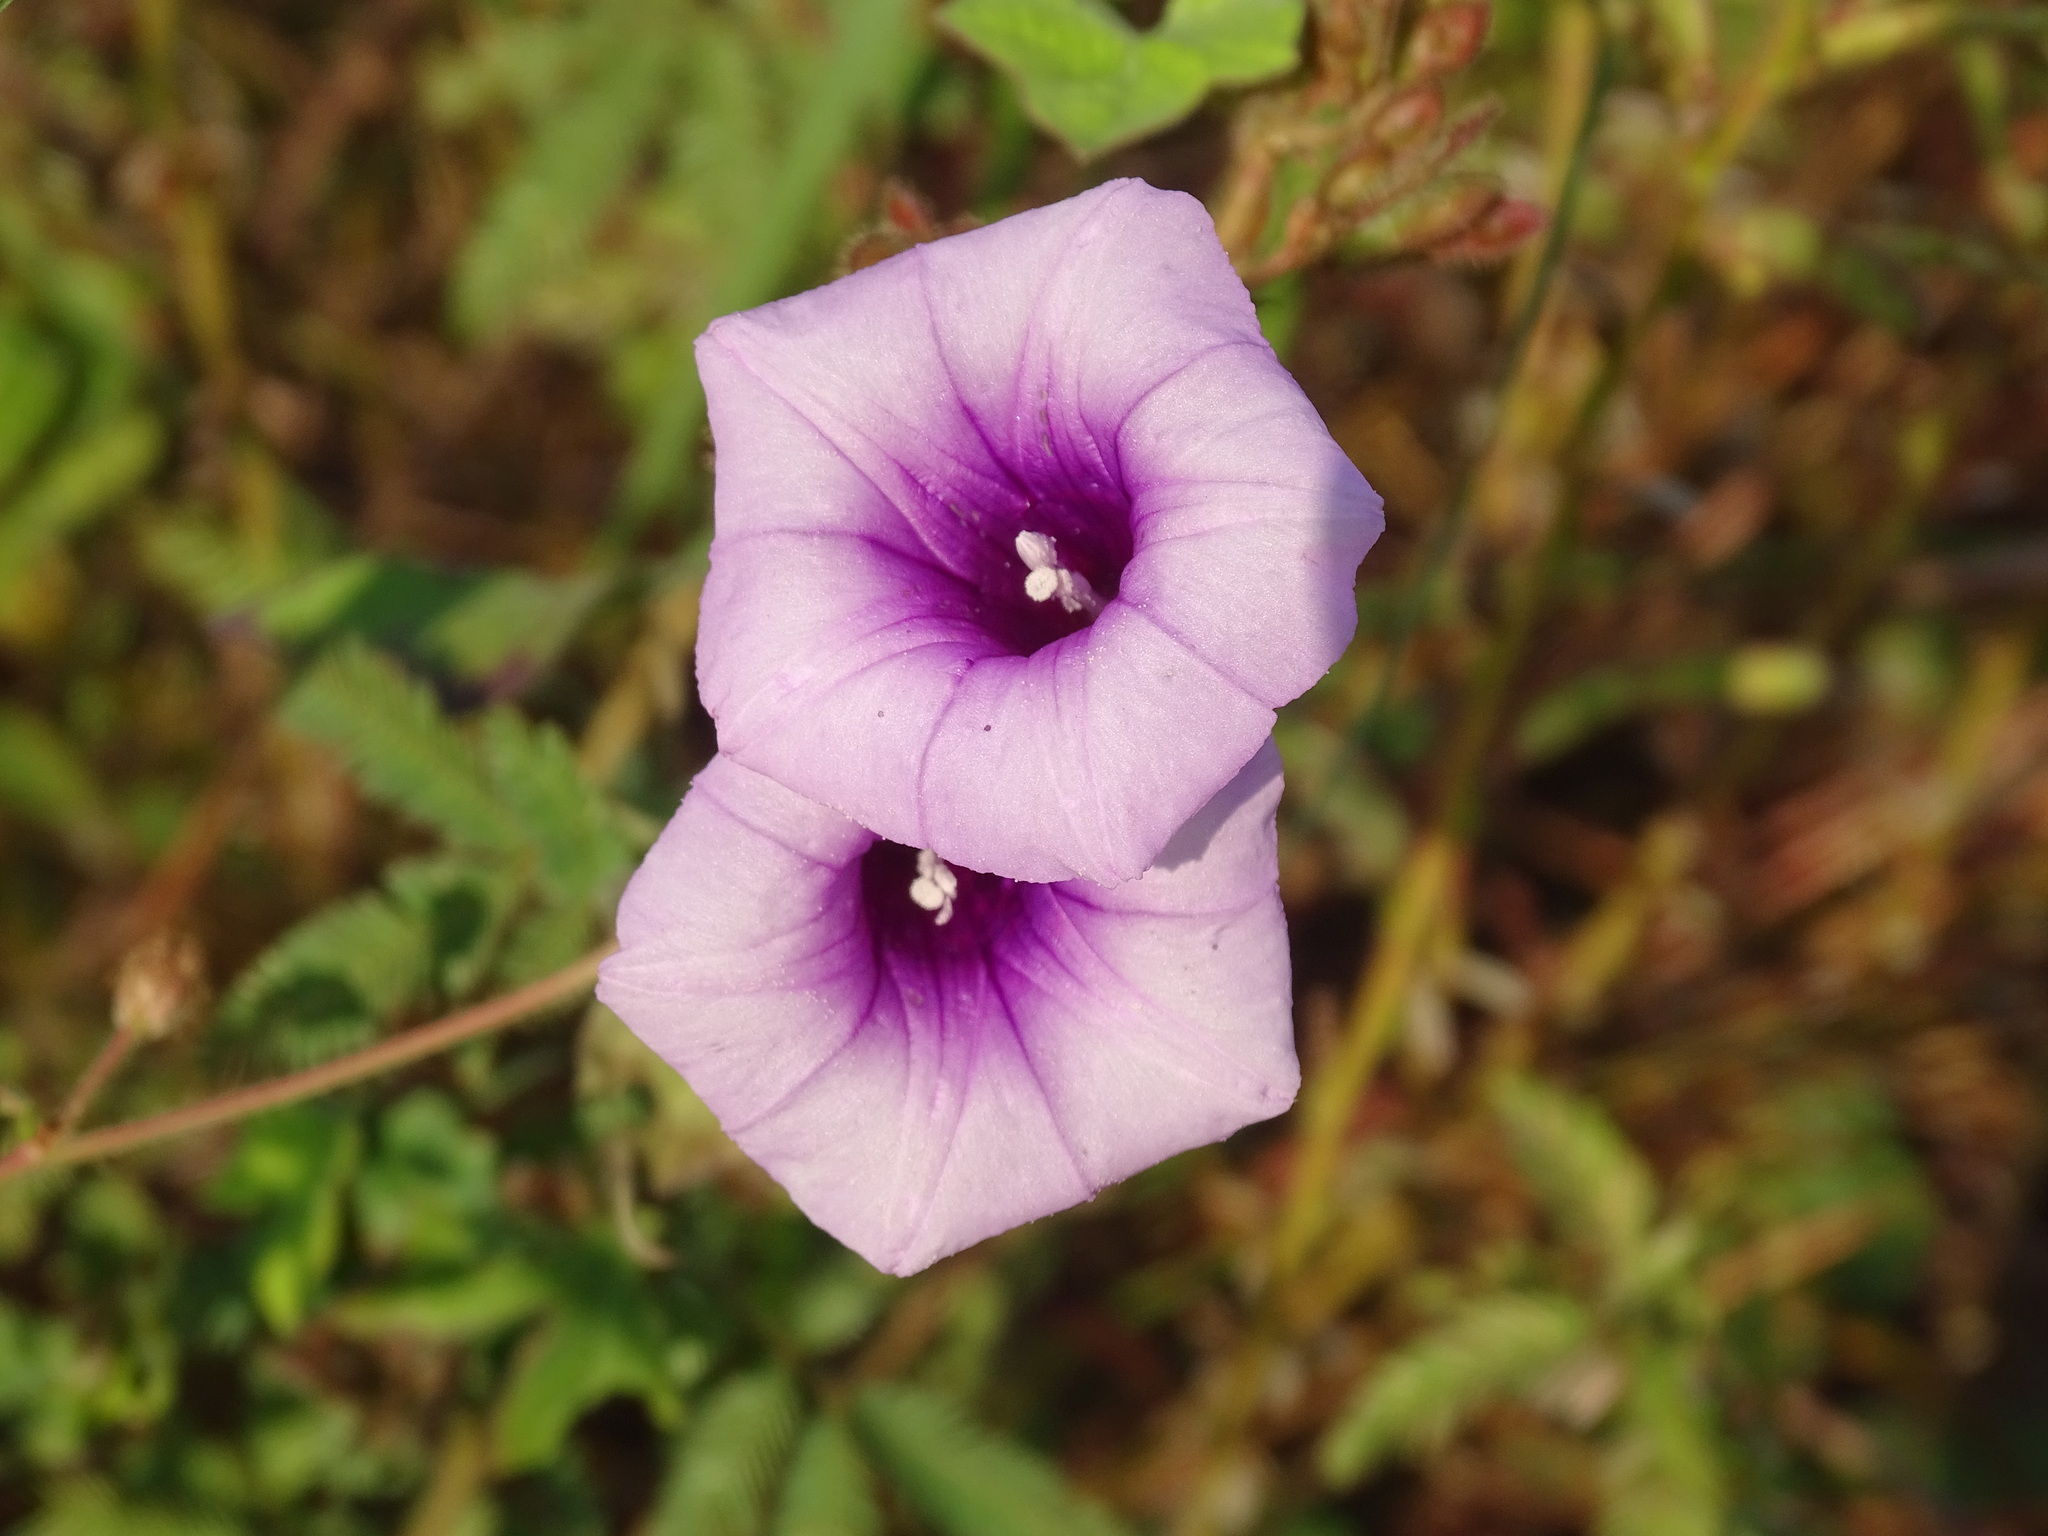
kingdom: Plantae
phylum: Tracheophyta
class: Magnoliopsida
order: Solanales
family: Convolvulaceae
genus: Ipomoea
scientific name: Ipomoea trifida
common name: Cotton morningglory
